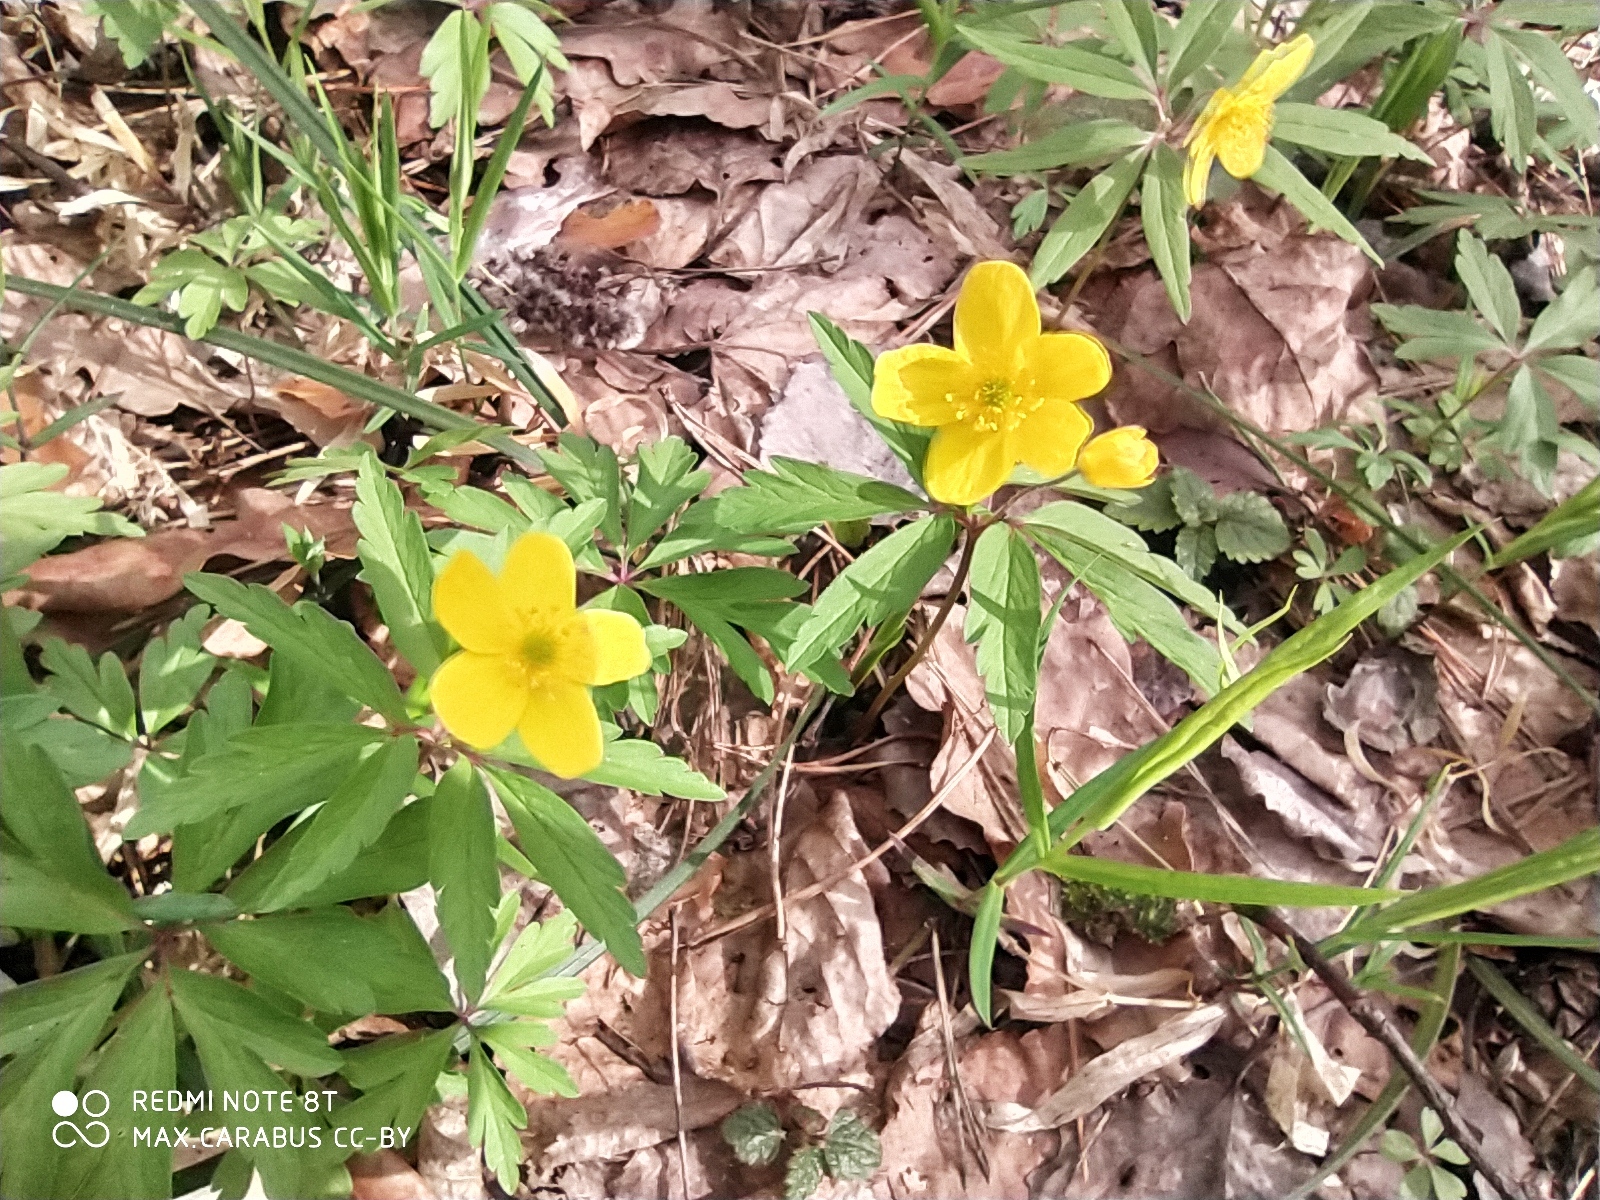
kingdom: Plantae
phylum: Tracheophyta
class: Magnoliopsida
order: Ranunculales
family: Ranunculaceae
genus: Anemone
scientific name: Anemone ranunculoides
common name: Yellow anemone
